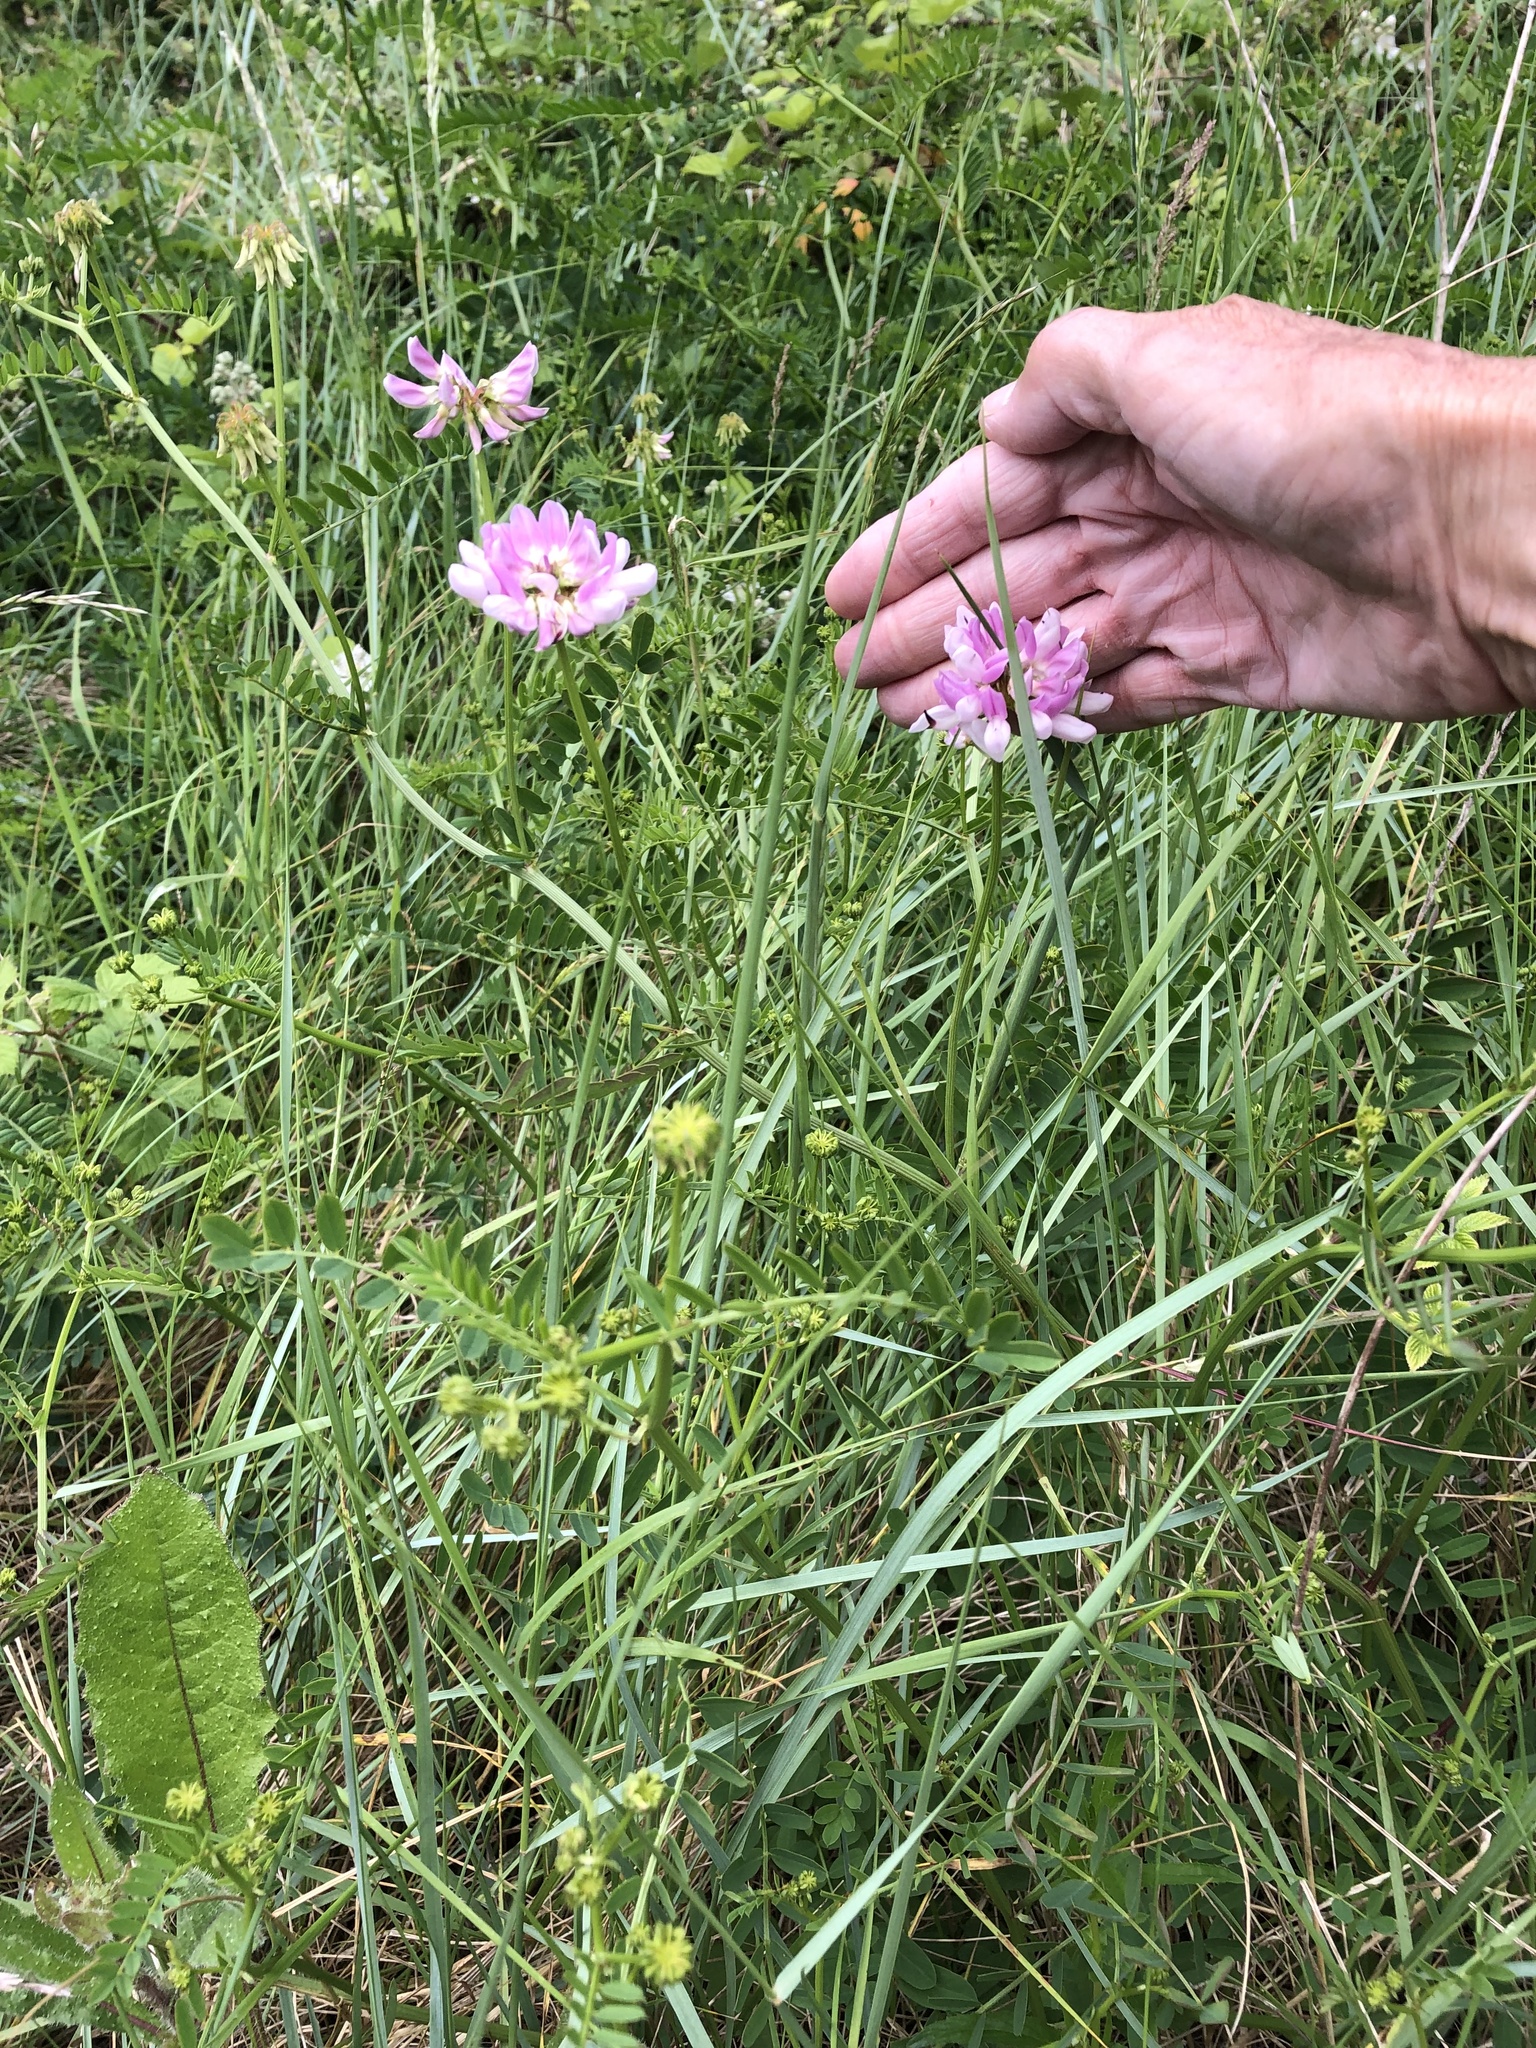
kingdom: Plantae
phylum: Tracheophyta
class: Magnoliopsida
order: Fabales
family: Fabaceae
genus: Coronilla
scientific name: Coronilla varia
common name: Crownvetch
